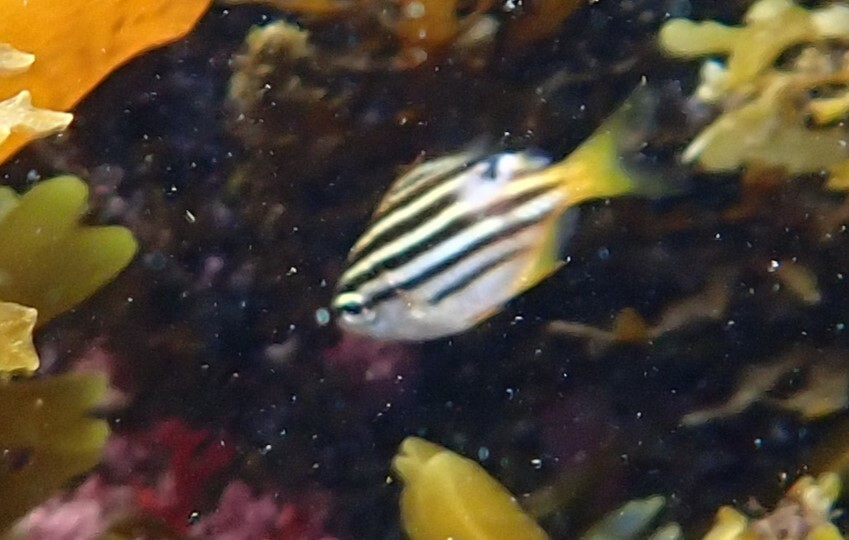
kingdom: Animalia
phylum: Chordata
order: Perciformes
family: Kyphosidae
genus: Atypichthys
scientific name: Atypichthys strigatus
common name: Australian mado
